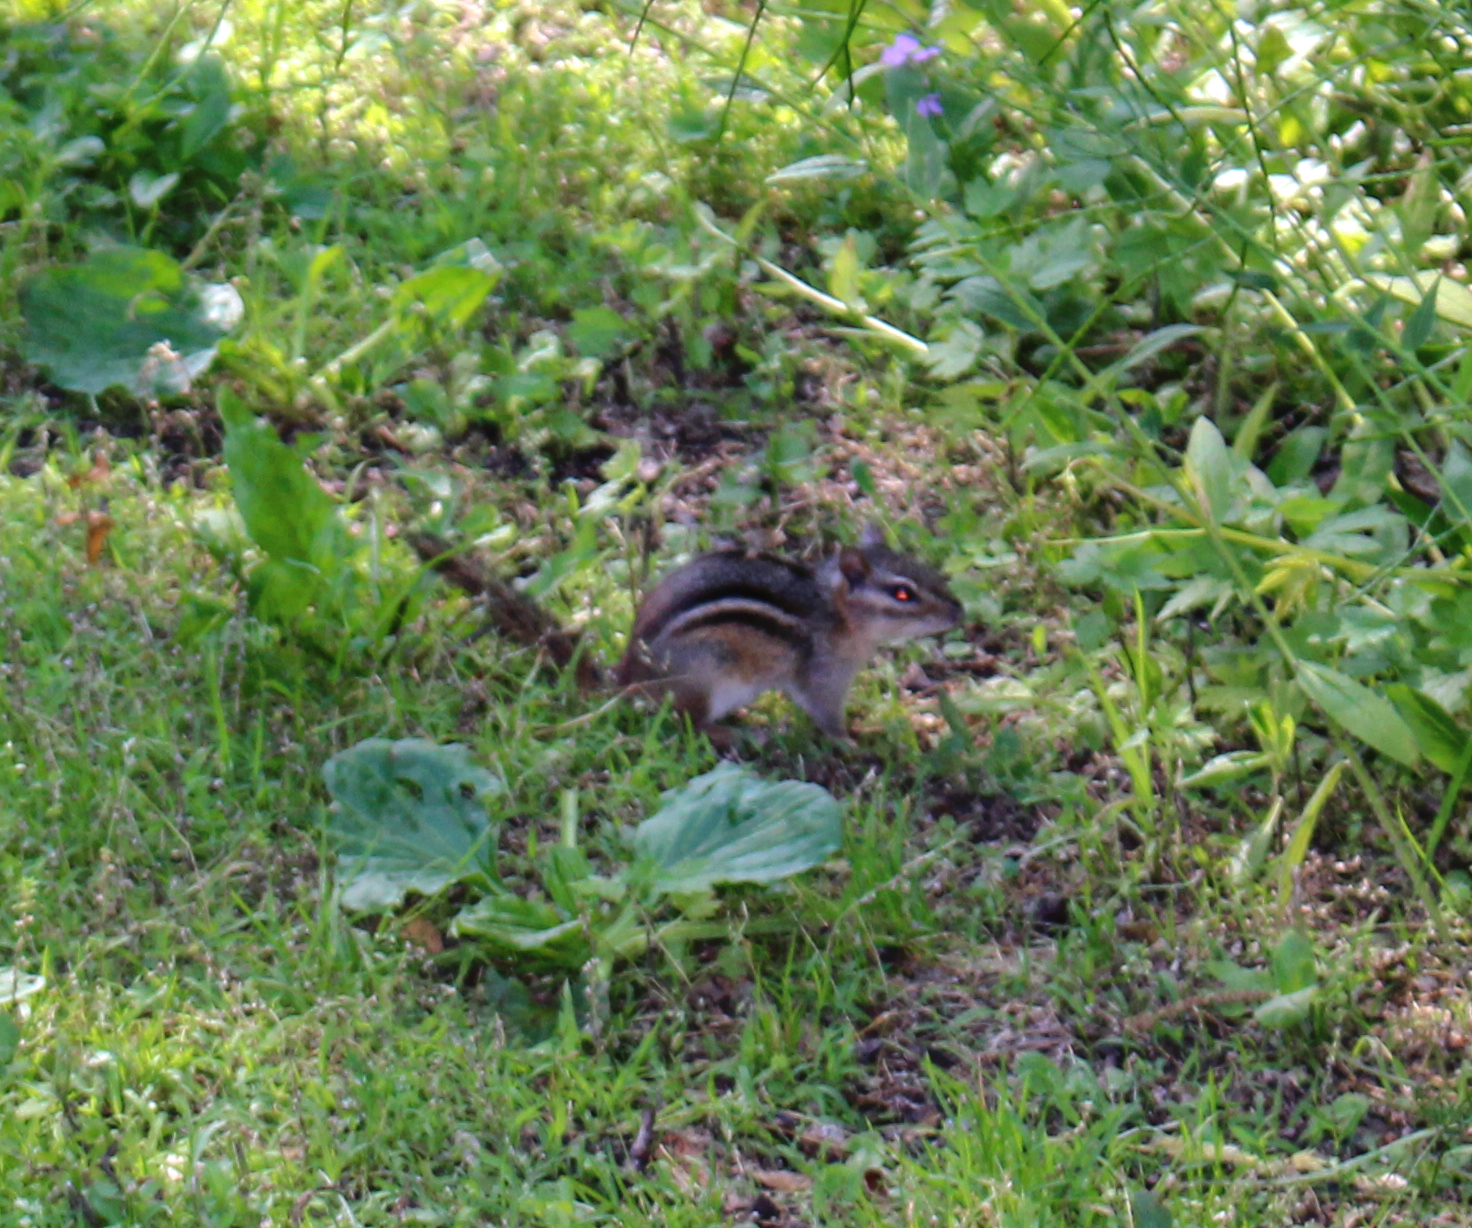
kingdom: Animalia
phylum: Chordata
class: Mammalia
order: Rodentia
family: Sciuridae
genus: Tamias
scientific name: Tamias striatus
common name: Eastern chipmunk
